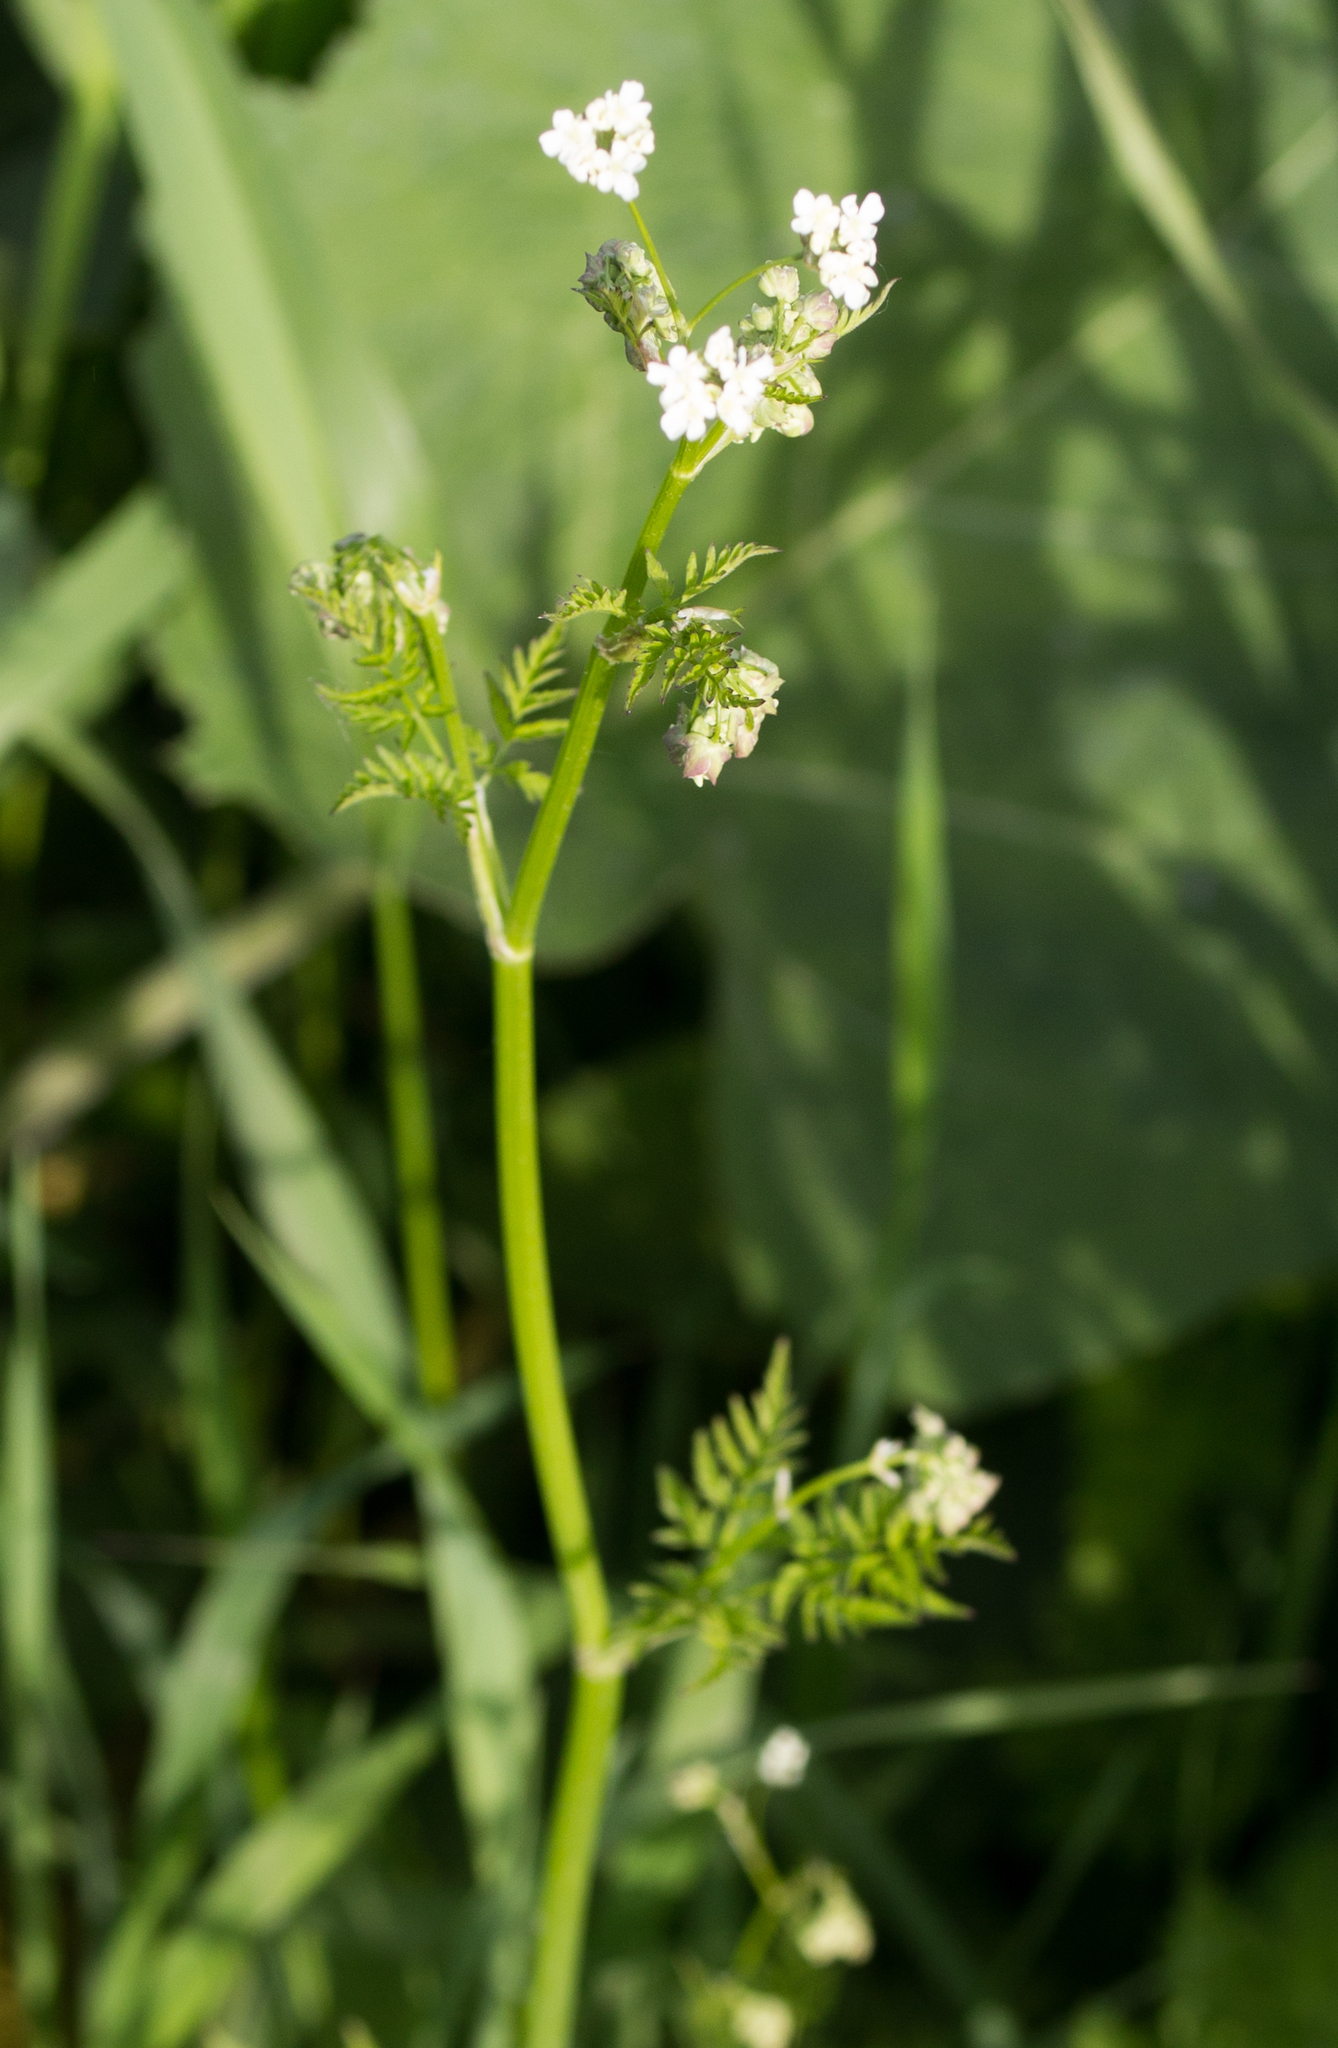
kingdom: Plantae
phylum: Tracheophyta
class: Magnoliopsida
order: Apiales
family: Apiaceae
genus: Anthriscus
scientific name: Anthriscus sylvestris
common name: Cow parsley
